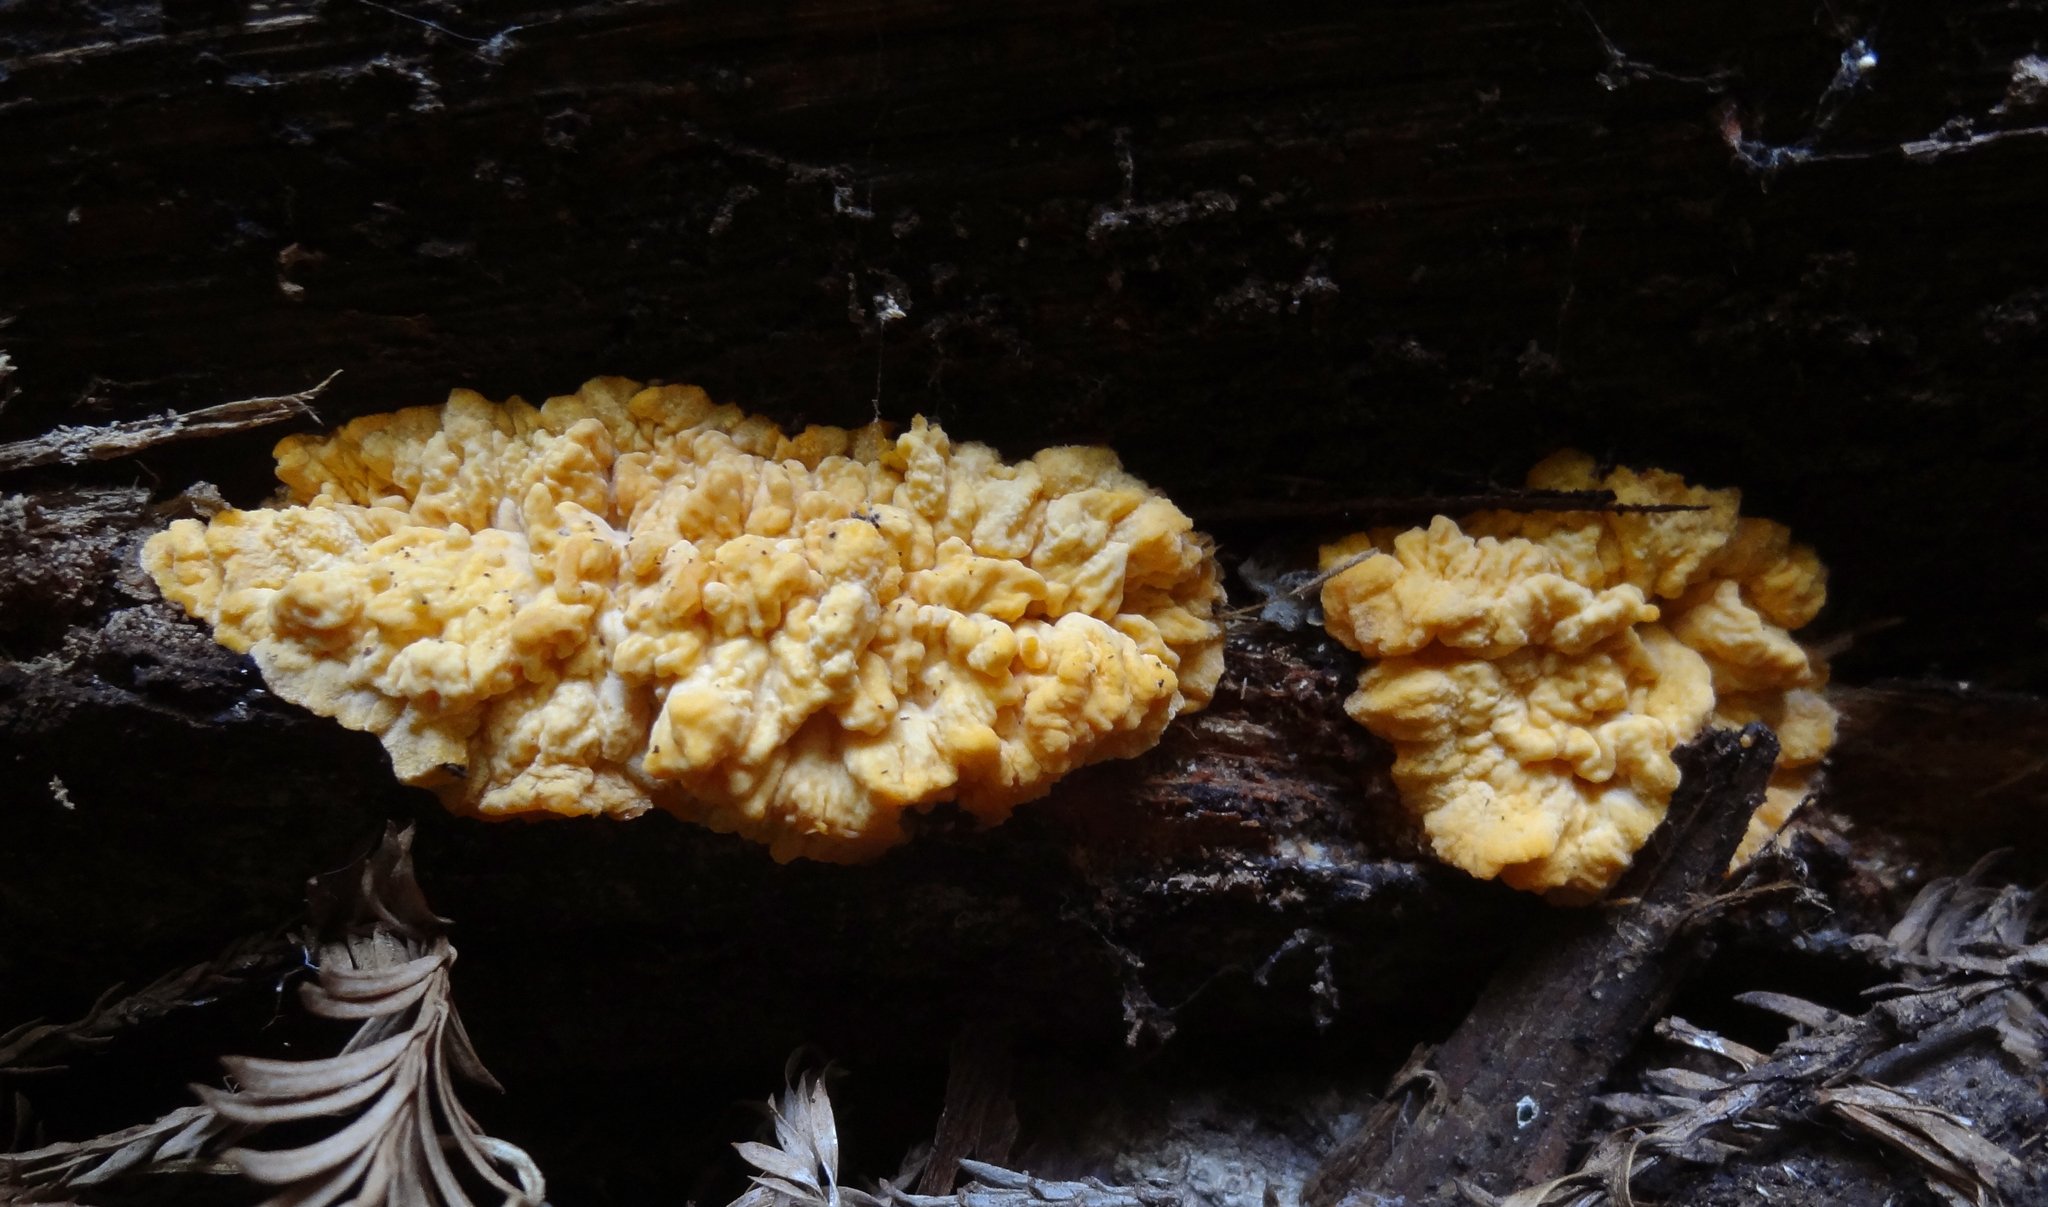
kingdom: Fungi
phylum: Basidiomycota
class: Agaricomycetes
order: Polyporales
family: Meruliaceae
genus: Phlebia
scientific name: Phlebia radiata
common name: Wrinkled crust
